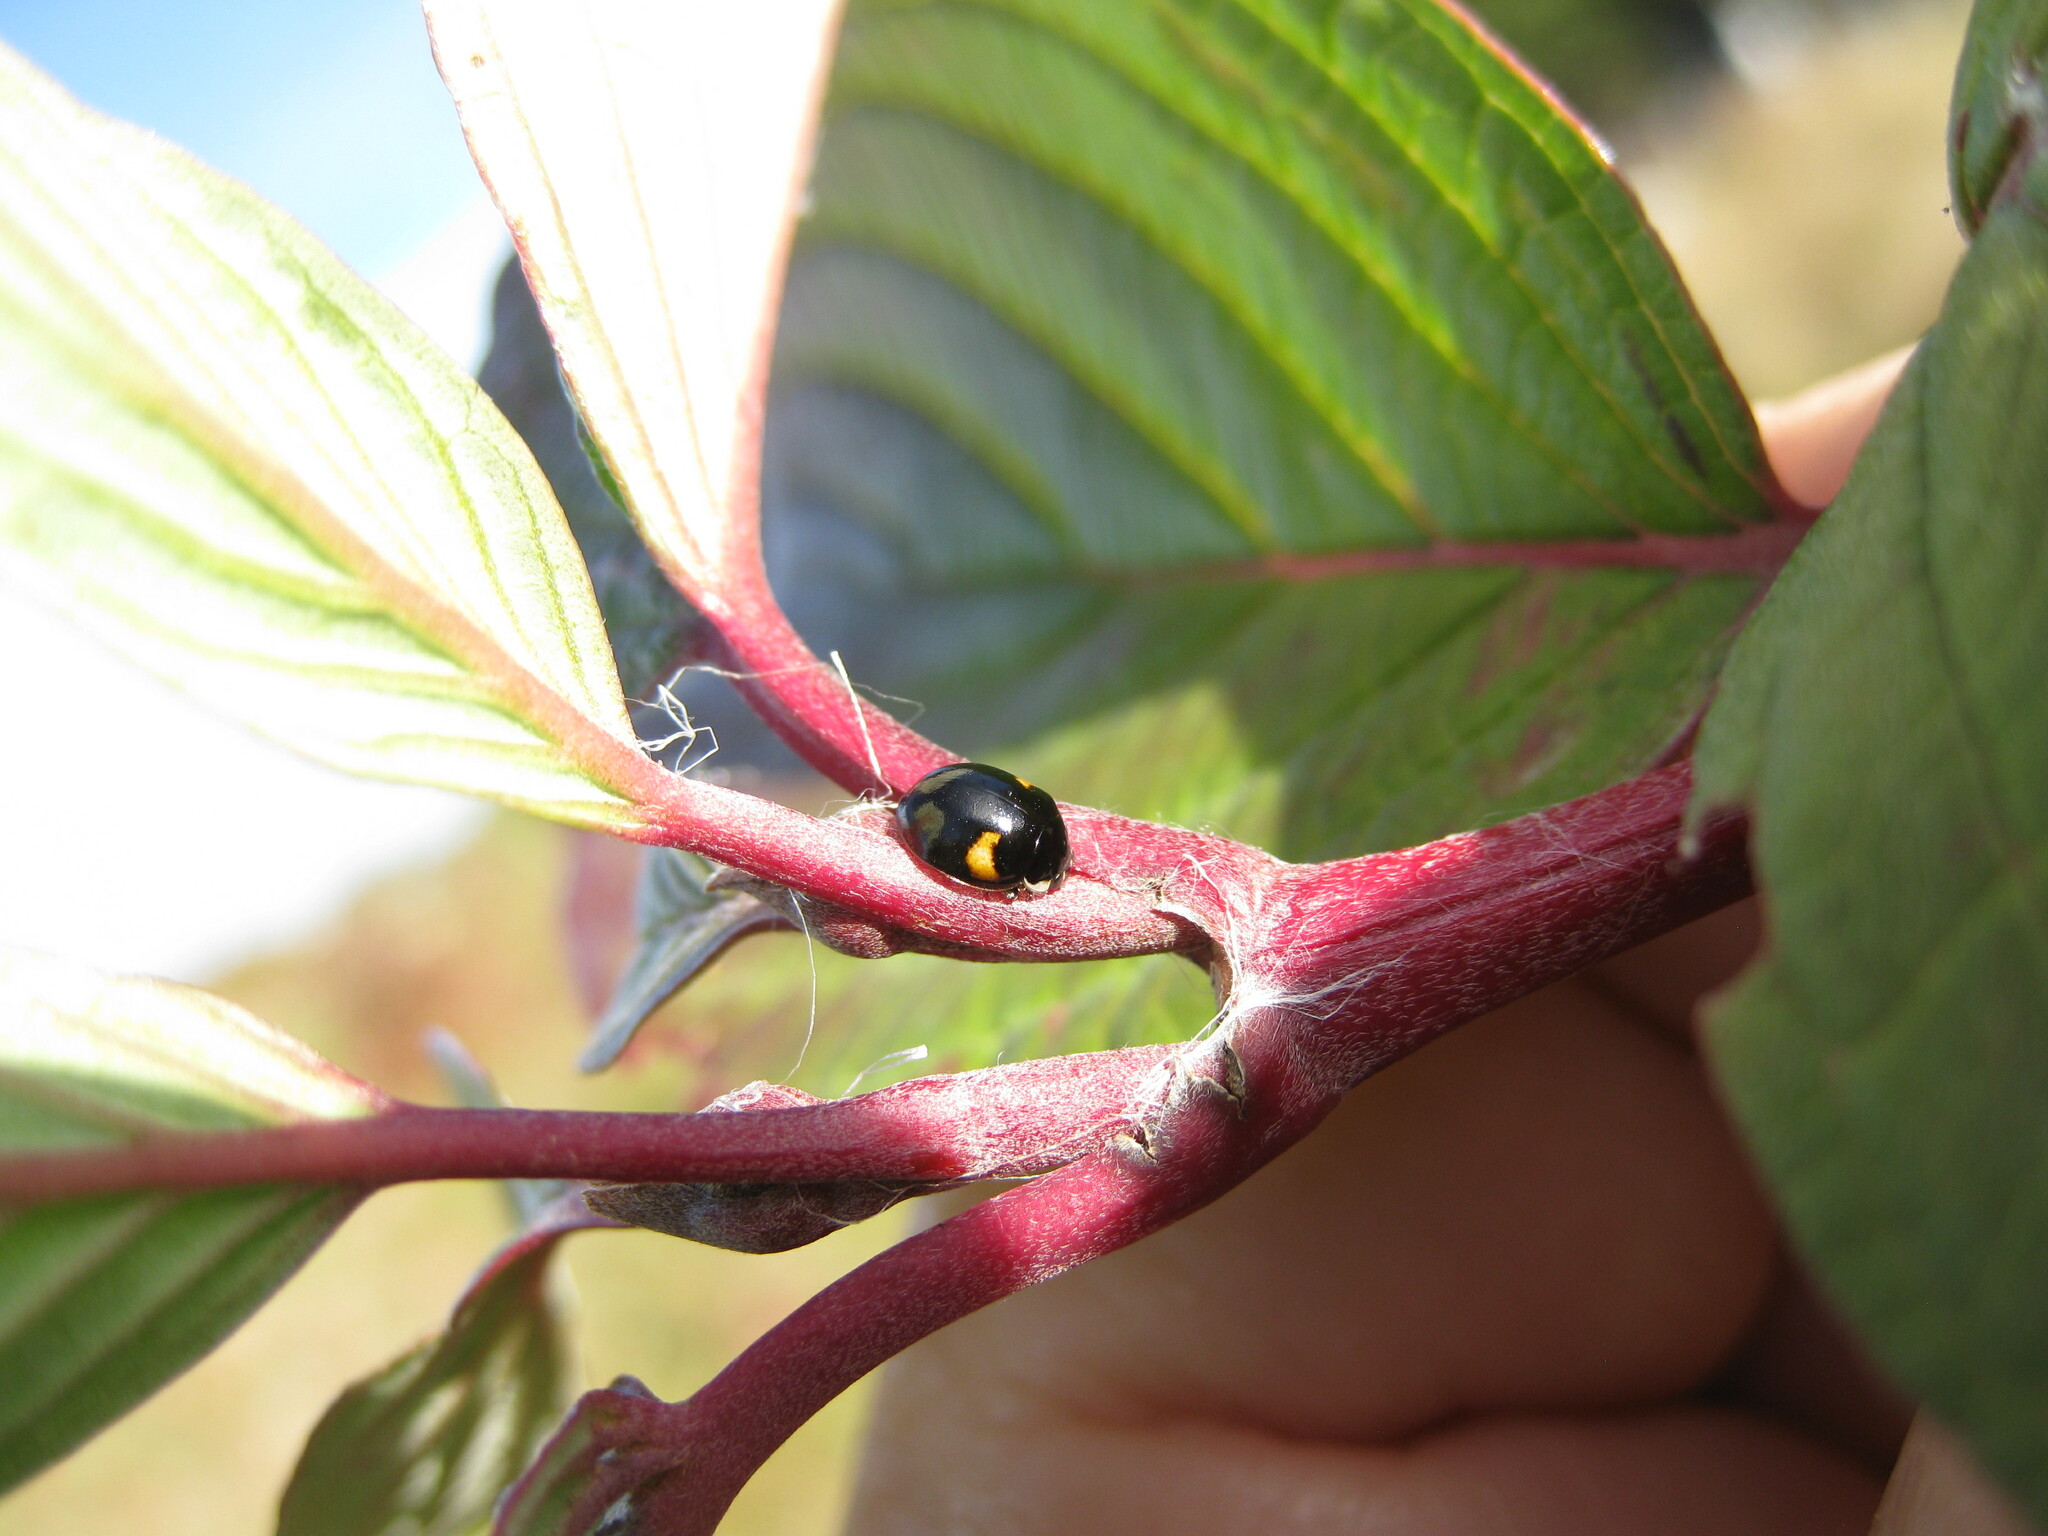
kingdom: Animalia
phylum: Arthropoda
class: Insecta
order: Coleoptera
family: Coccinellidae
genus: Adalia
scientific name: Adalia decempunctata
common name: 10-spot ladybird
